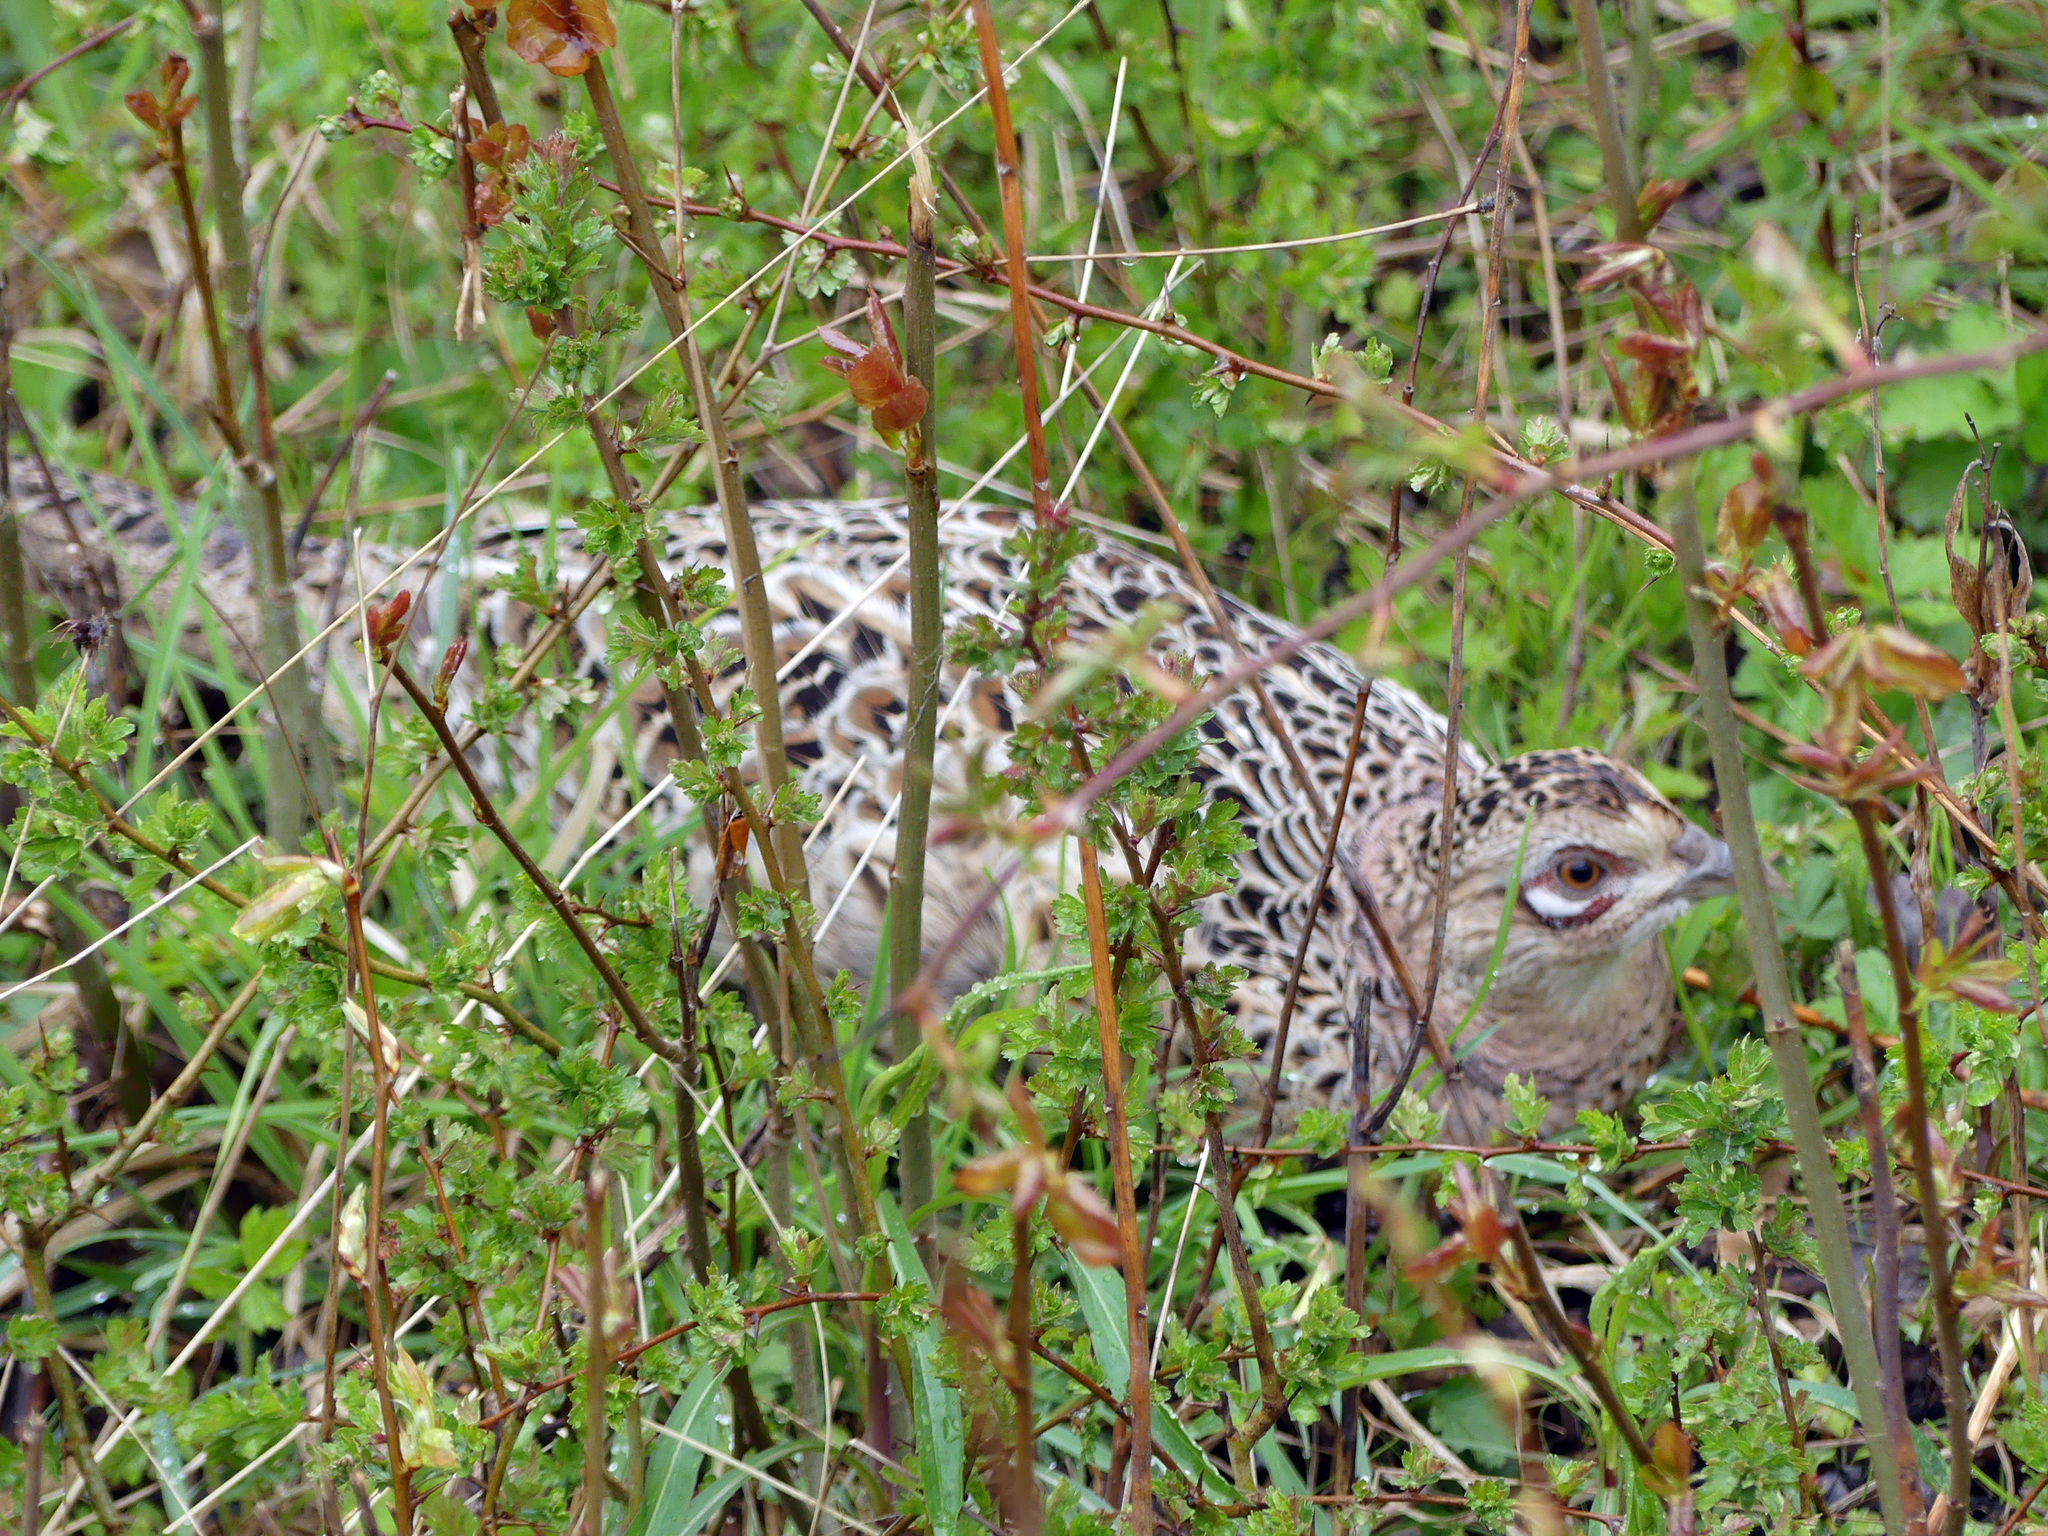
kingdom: Animalia
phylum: Chordata
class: Aves
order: Galliformes
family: Phasianidae
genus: Phasianus
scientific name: Phasianus colchicus
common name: Common pheasant
